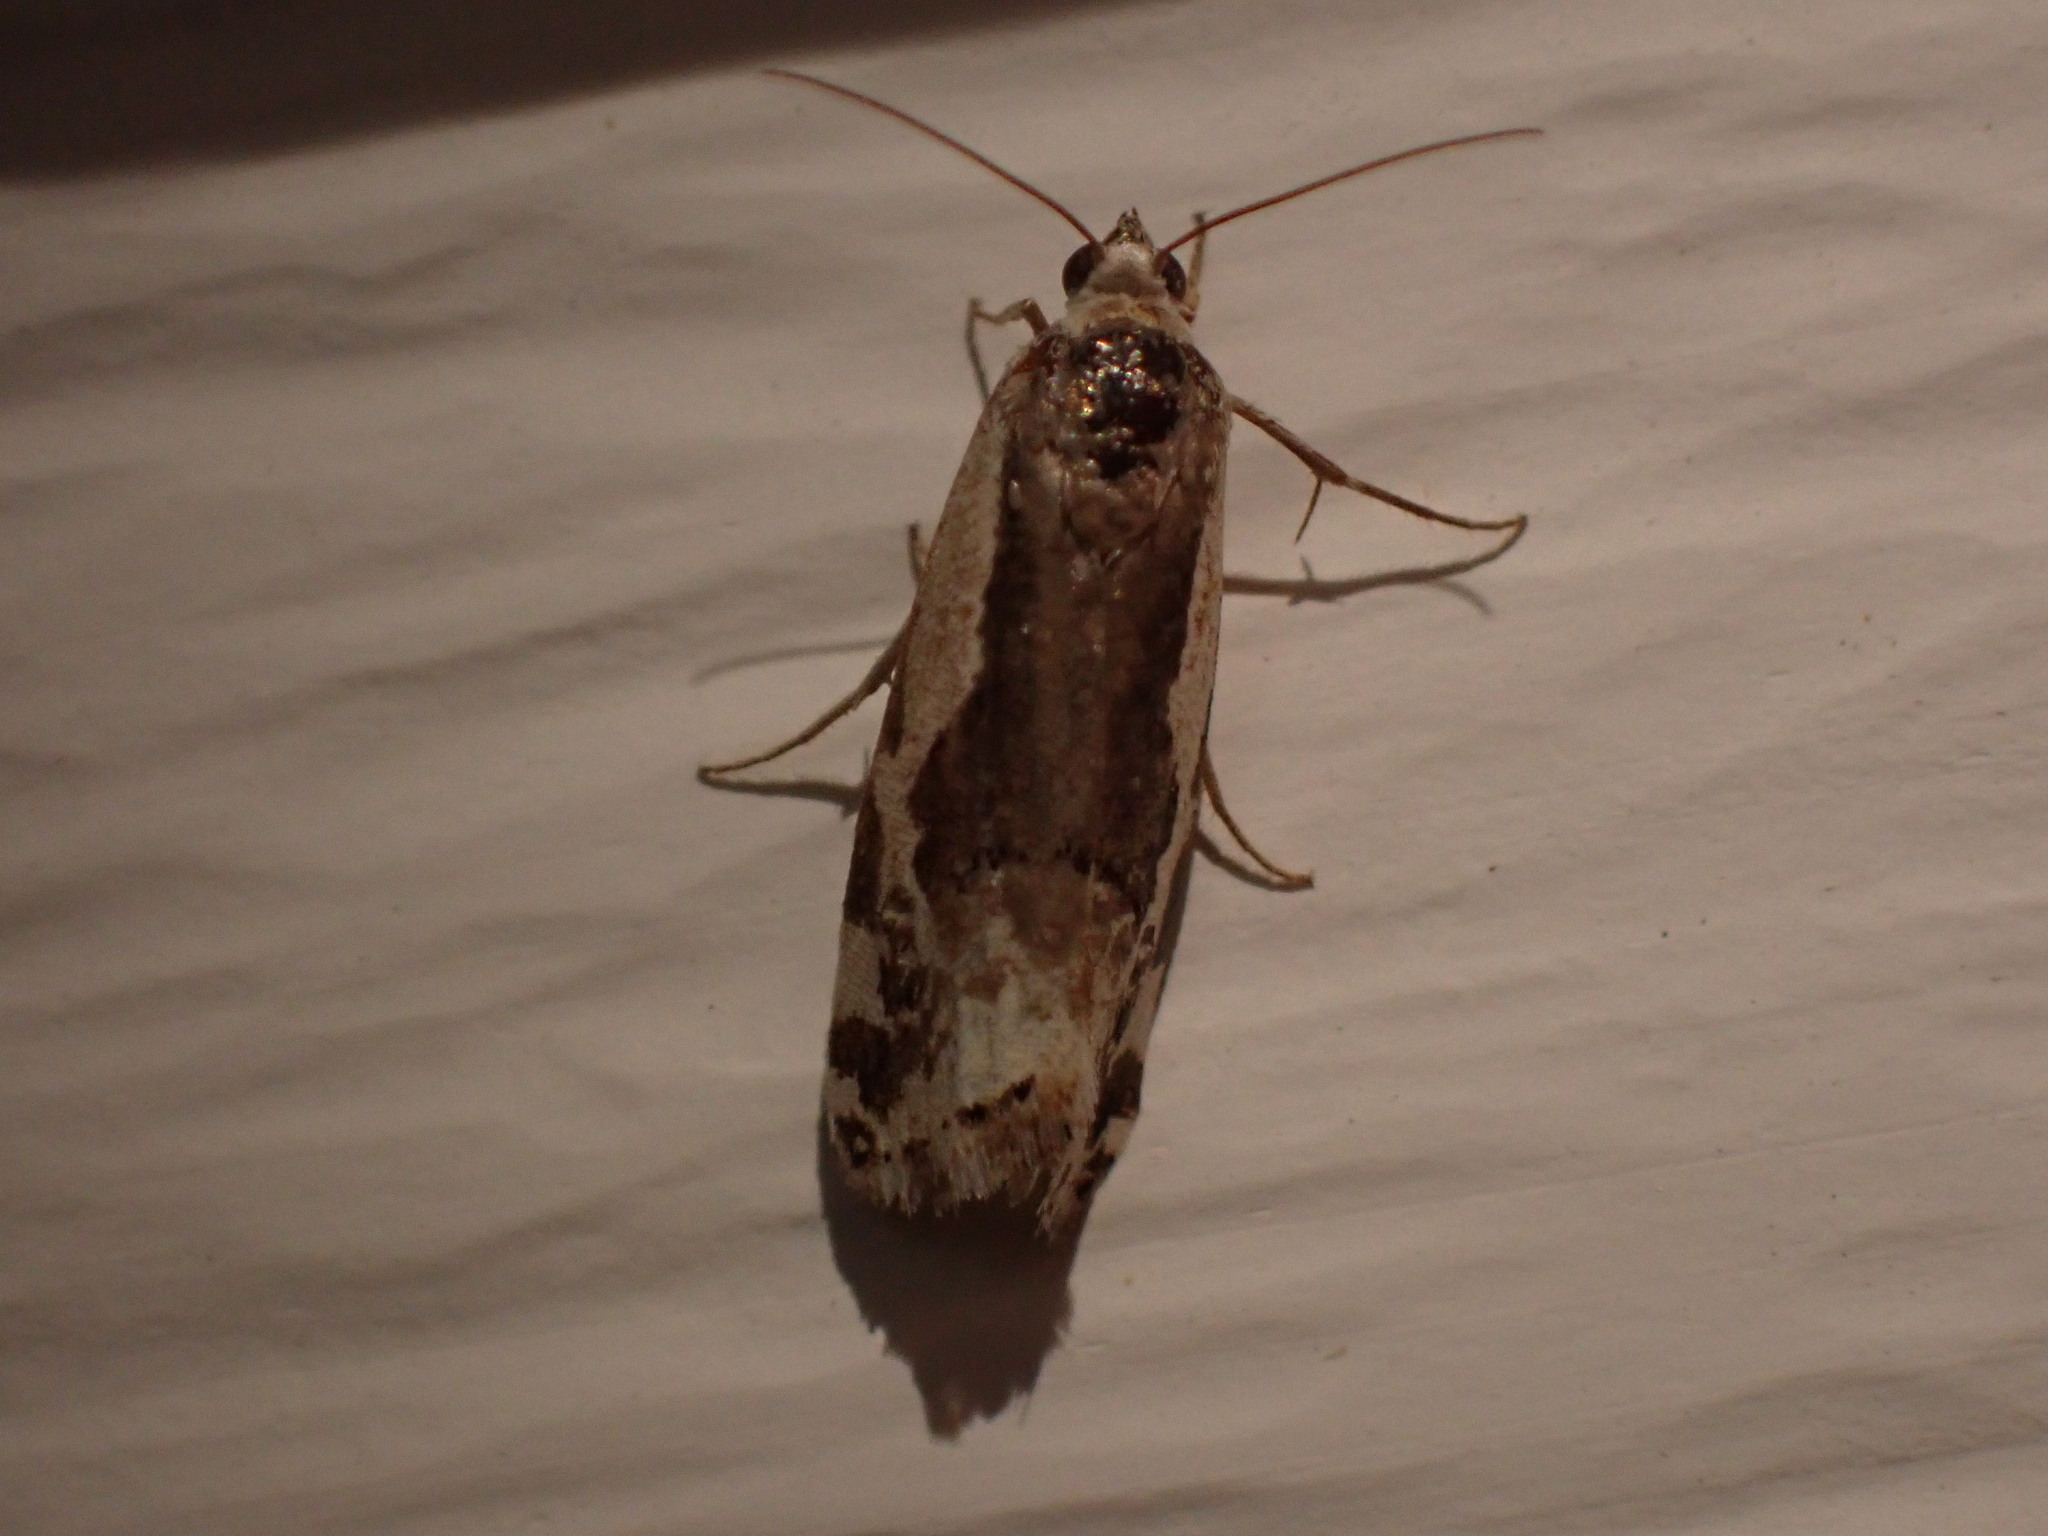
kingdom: Animalia
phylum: Arthropoda
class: Insecta
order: Lepidoptera
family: Noctuidae
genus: Acontia
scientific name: Acontia Tarache augustipennis
